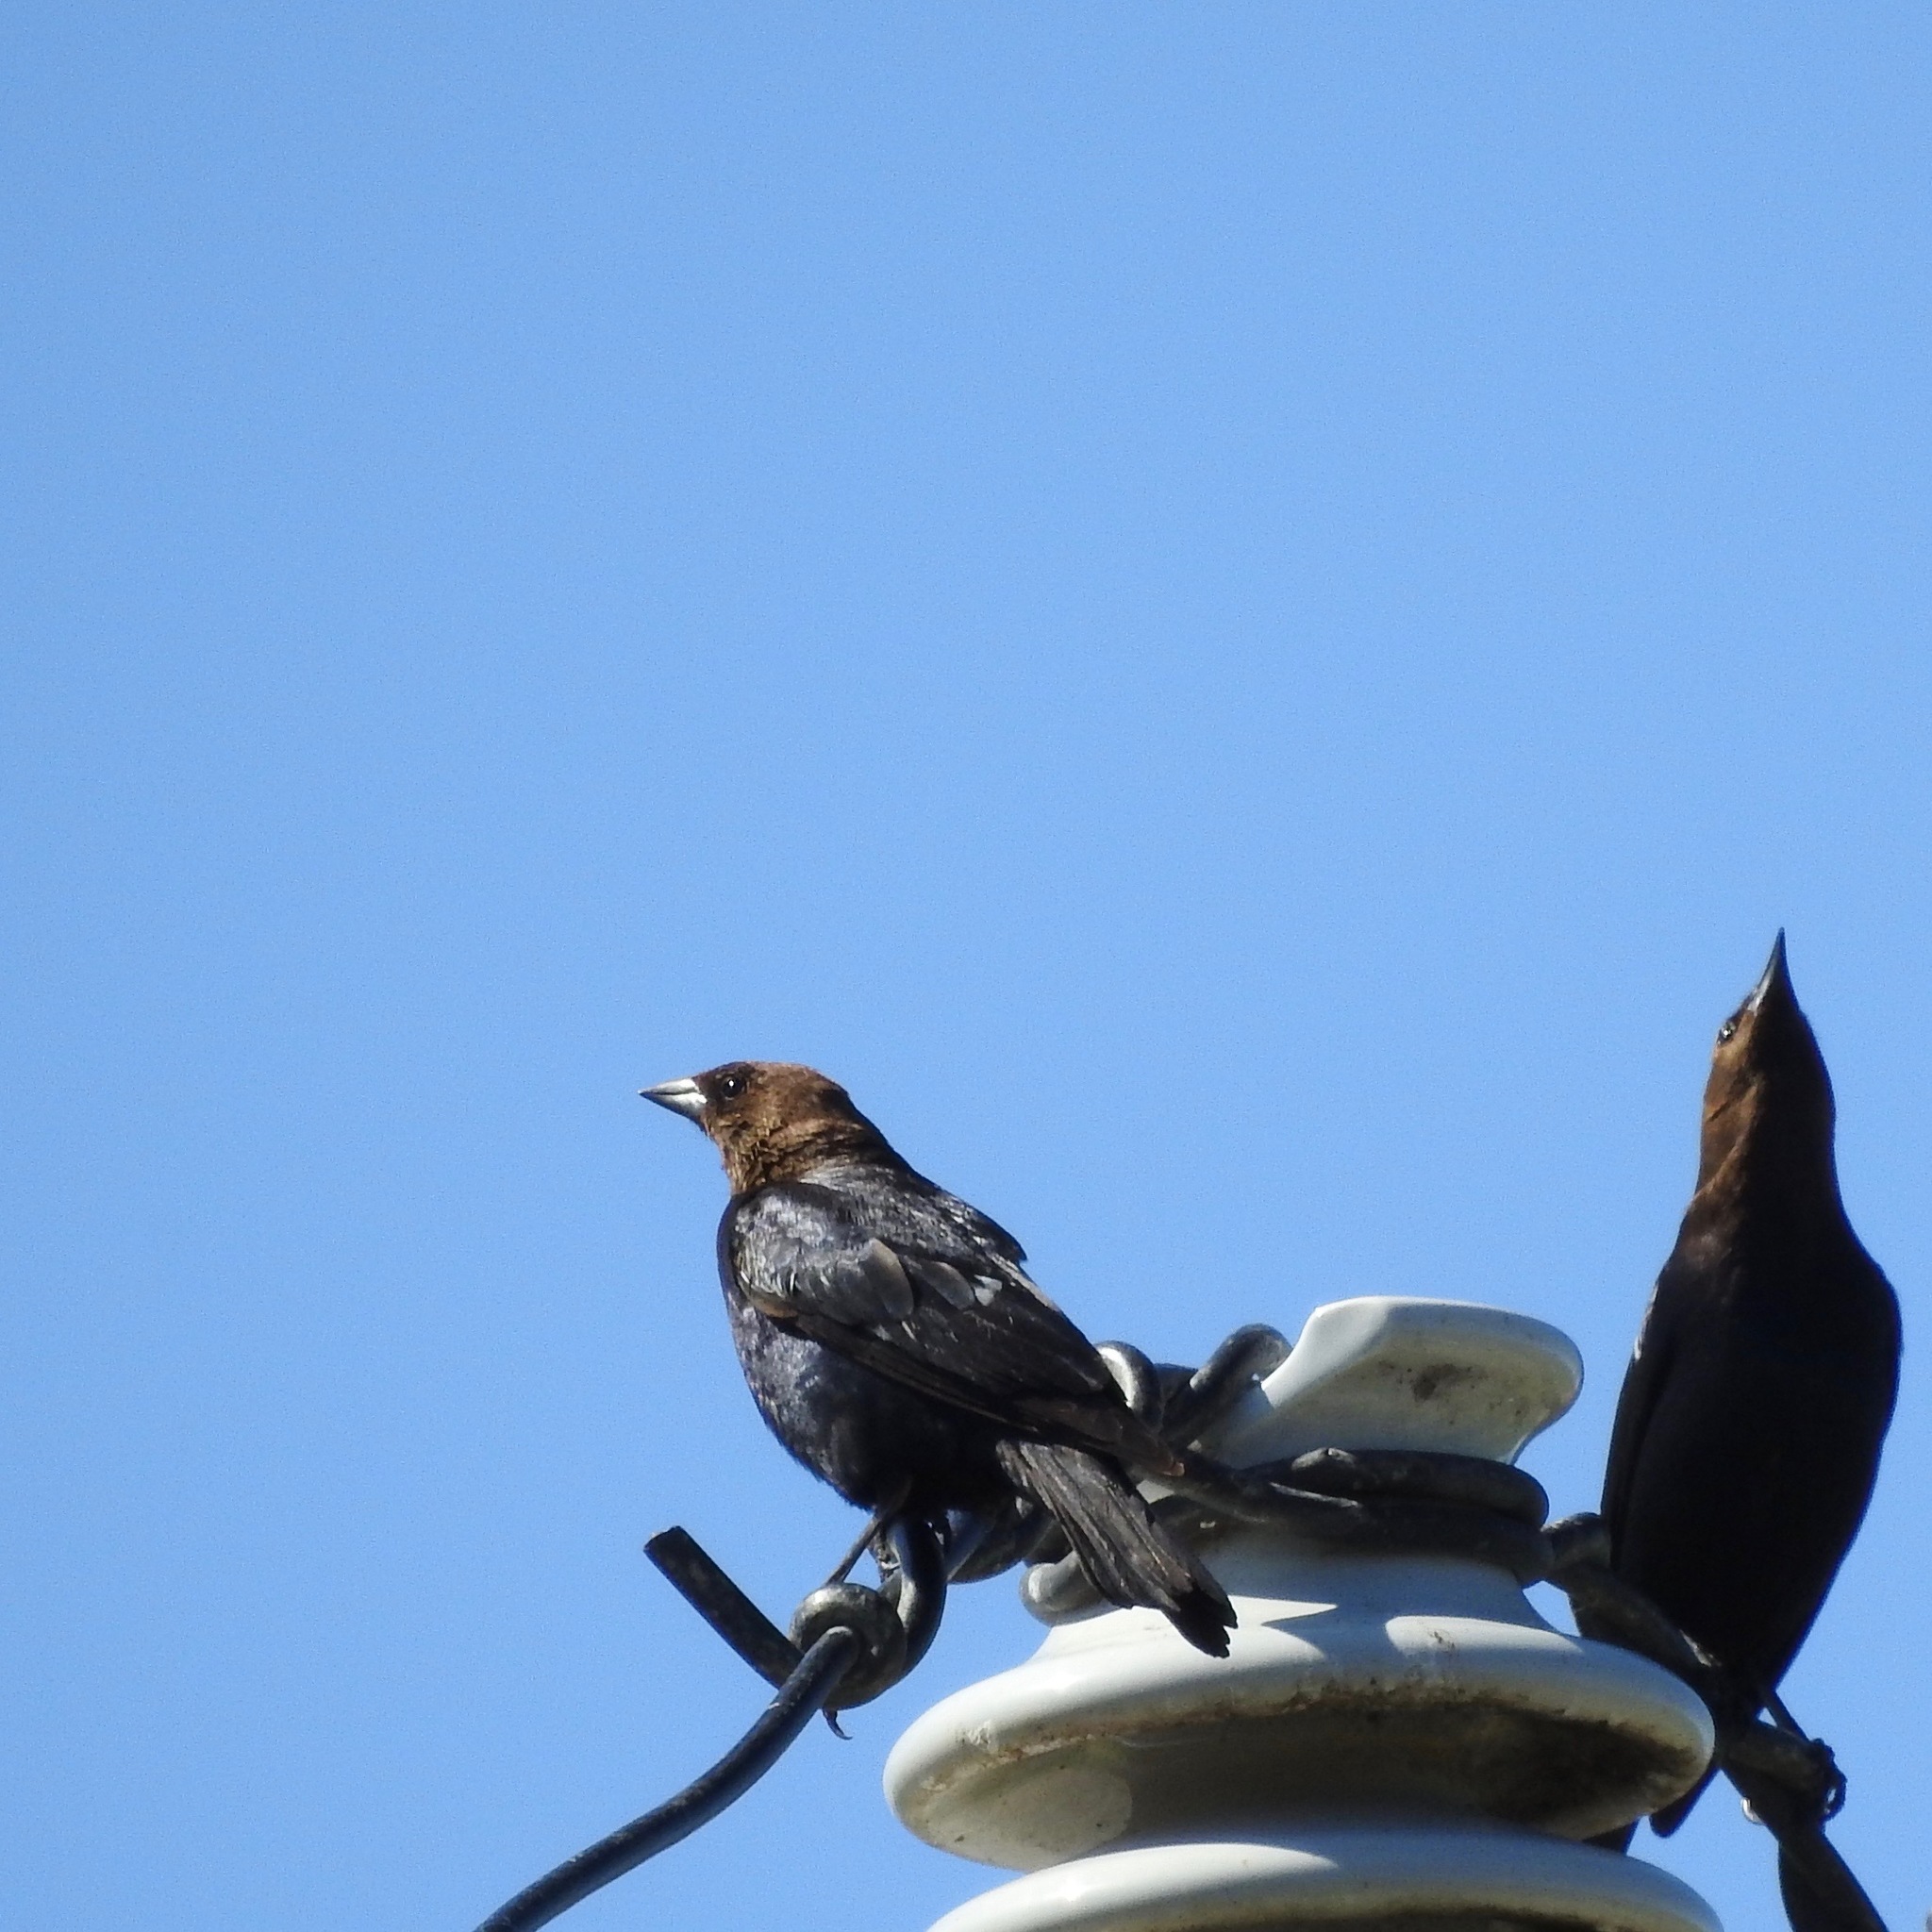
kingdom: Animalia
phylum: Chordata
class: Aves
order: Passeriformes
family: Icteridae
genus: Molothrus
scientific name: Molothrus ater
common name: Brown-headed cowbird
